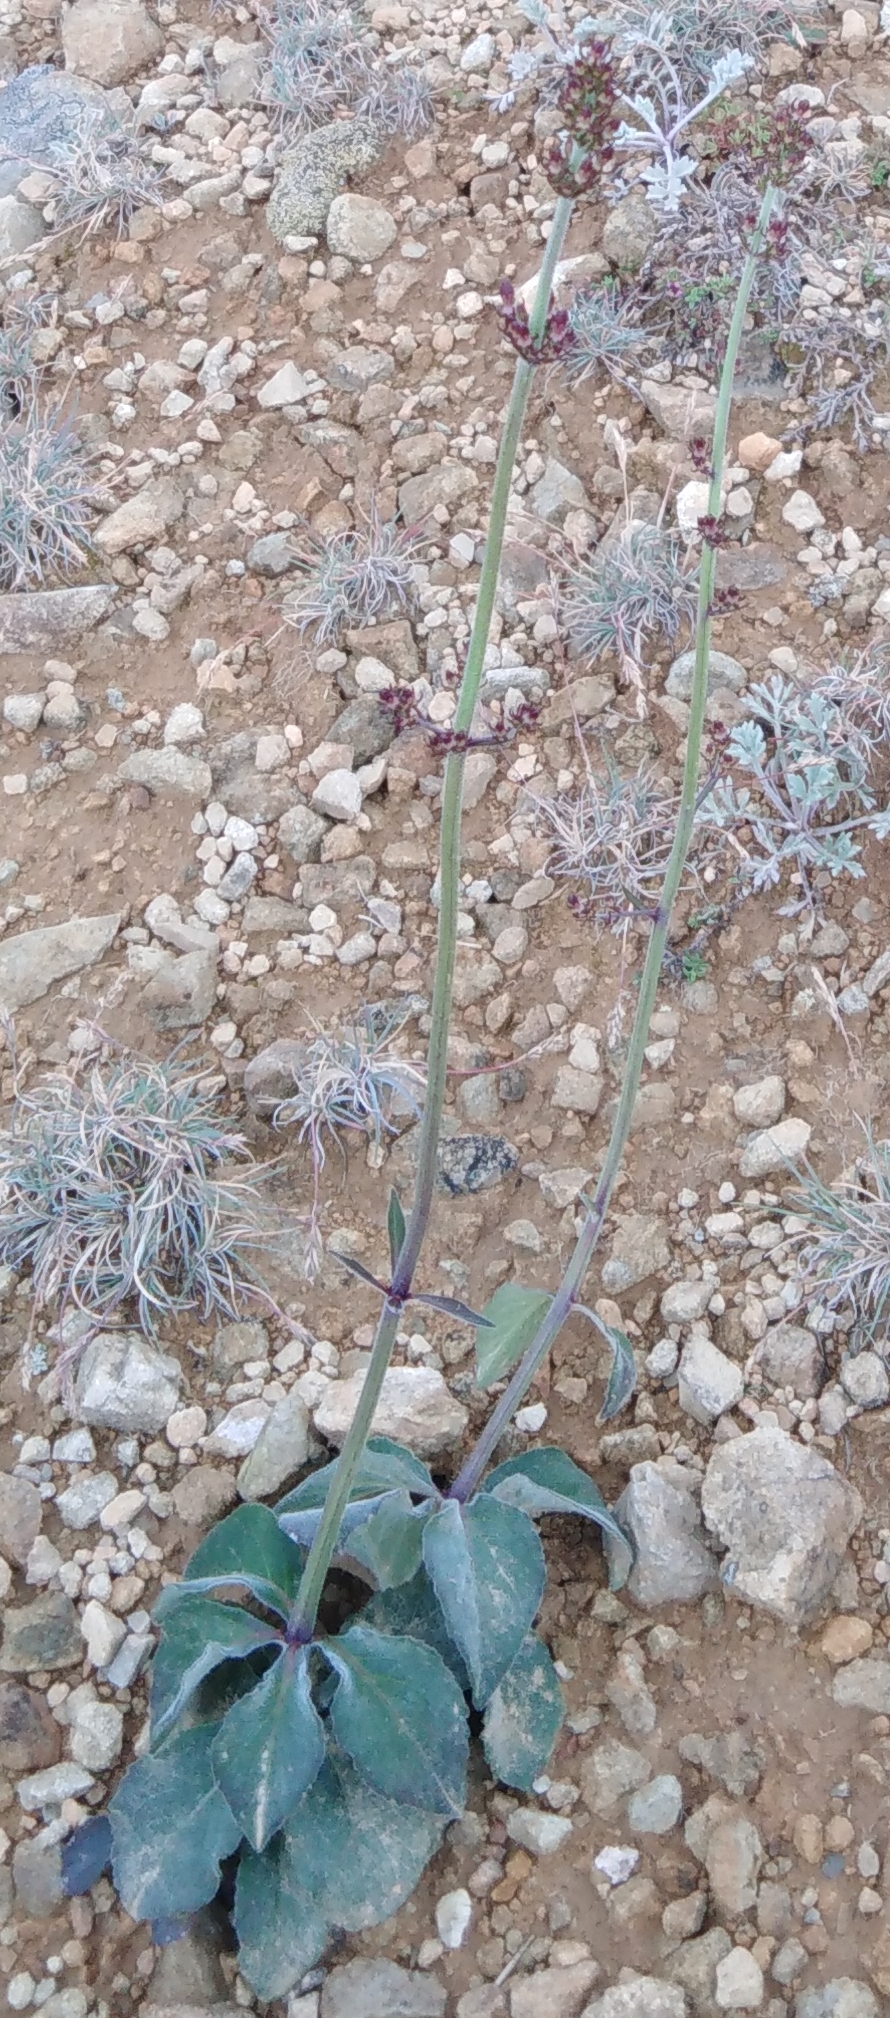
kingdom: Plantae
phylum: Tracheophyta
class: Magnoliopsida
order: Asterales
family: Campanulaceae
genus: Adenophora
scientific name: Adenophora probatovae
